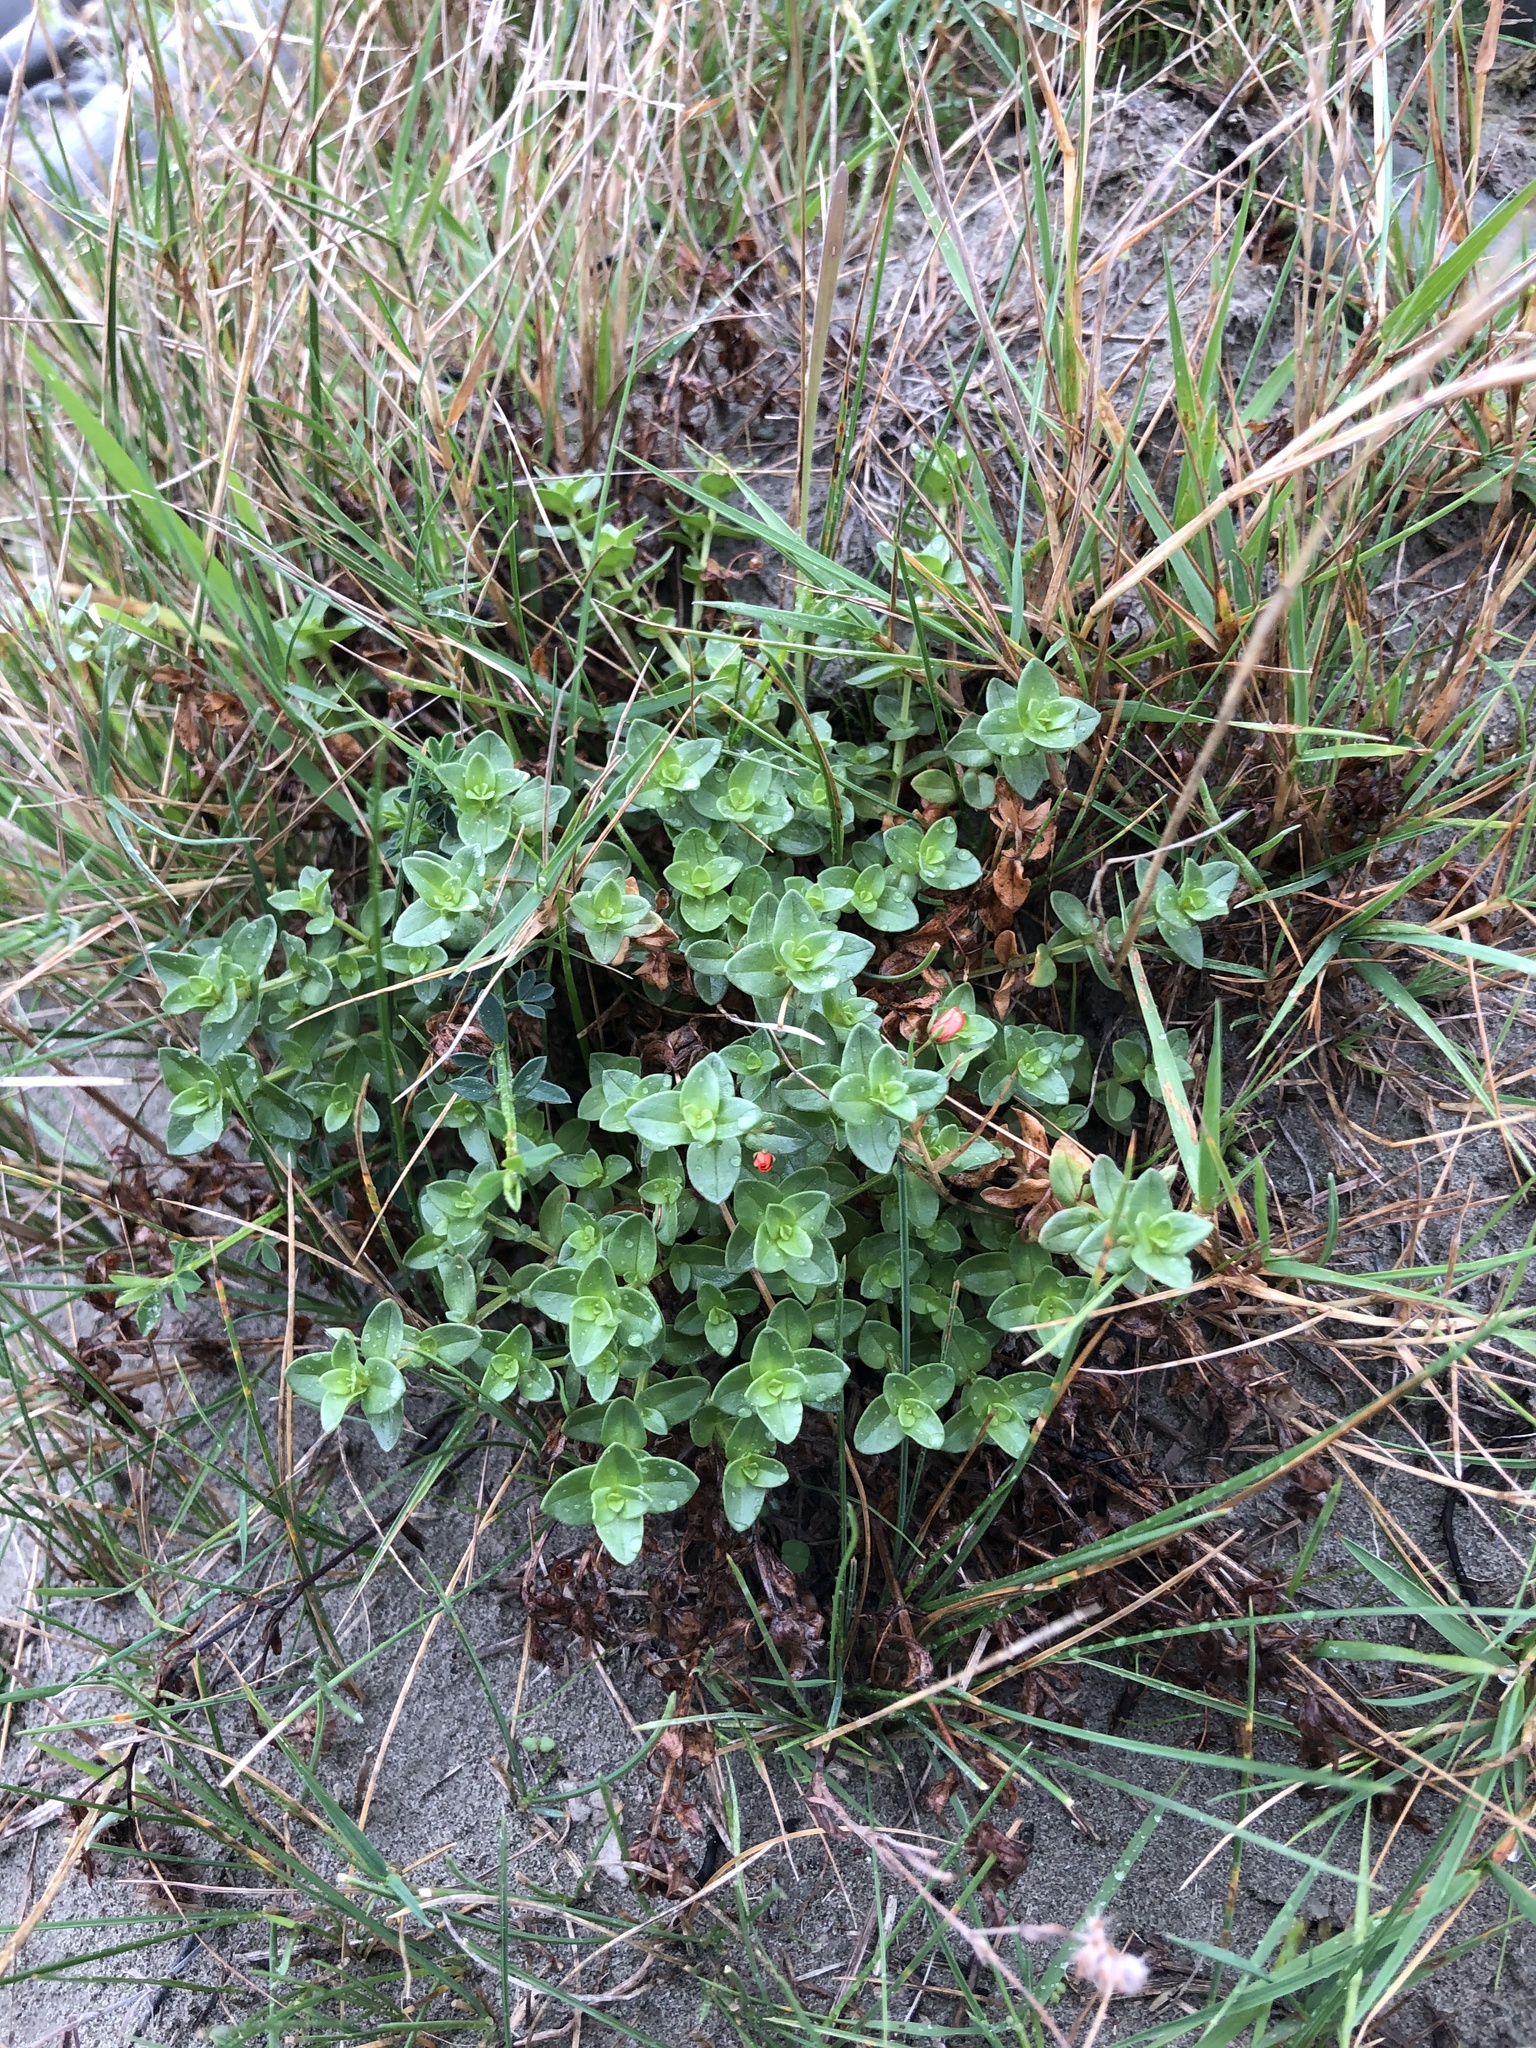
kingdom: Plantae
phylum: Tracheophyta
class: Magnoliopsida
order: Ericales
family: Primulaceae
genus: Lysimachia
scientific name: Lysimachia arvensis
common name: Scarlet pimpernel
